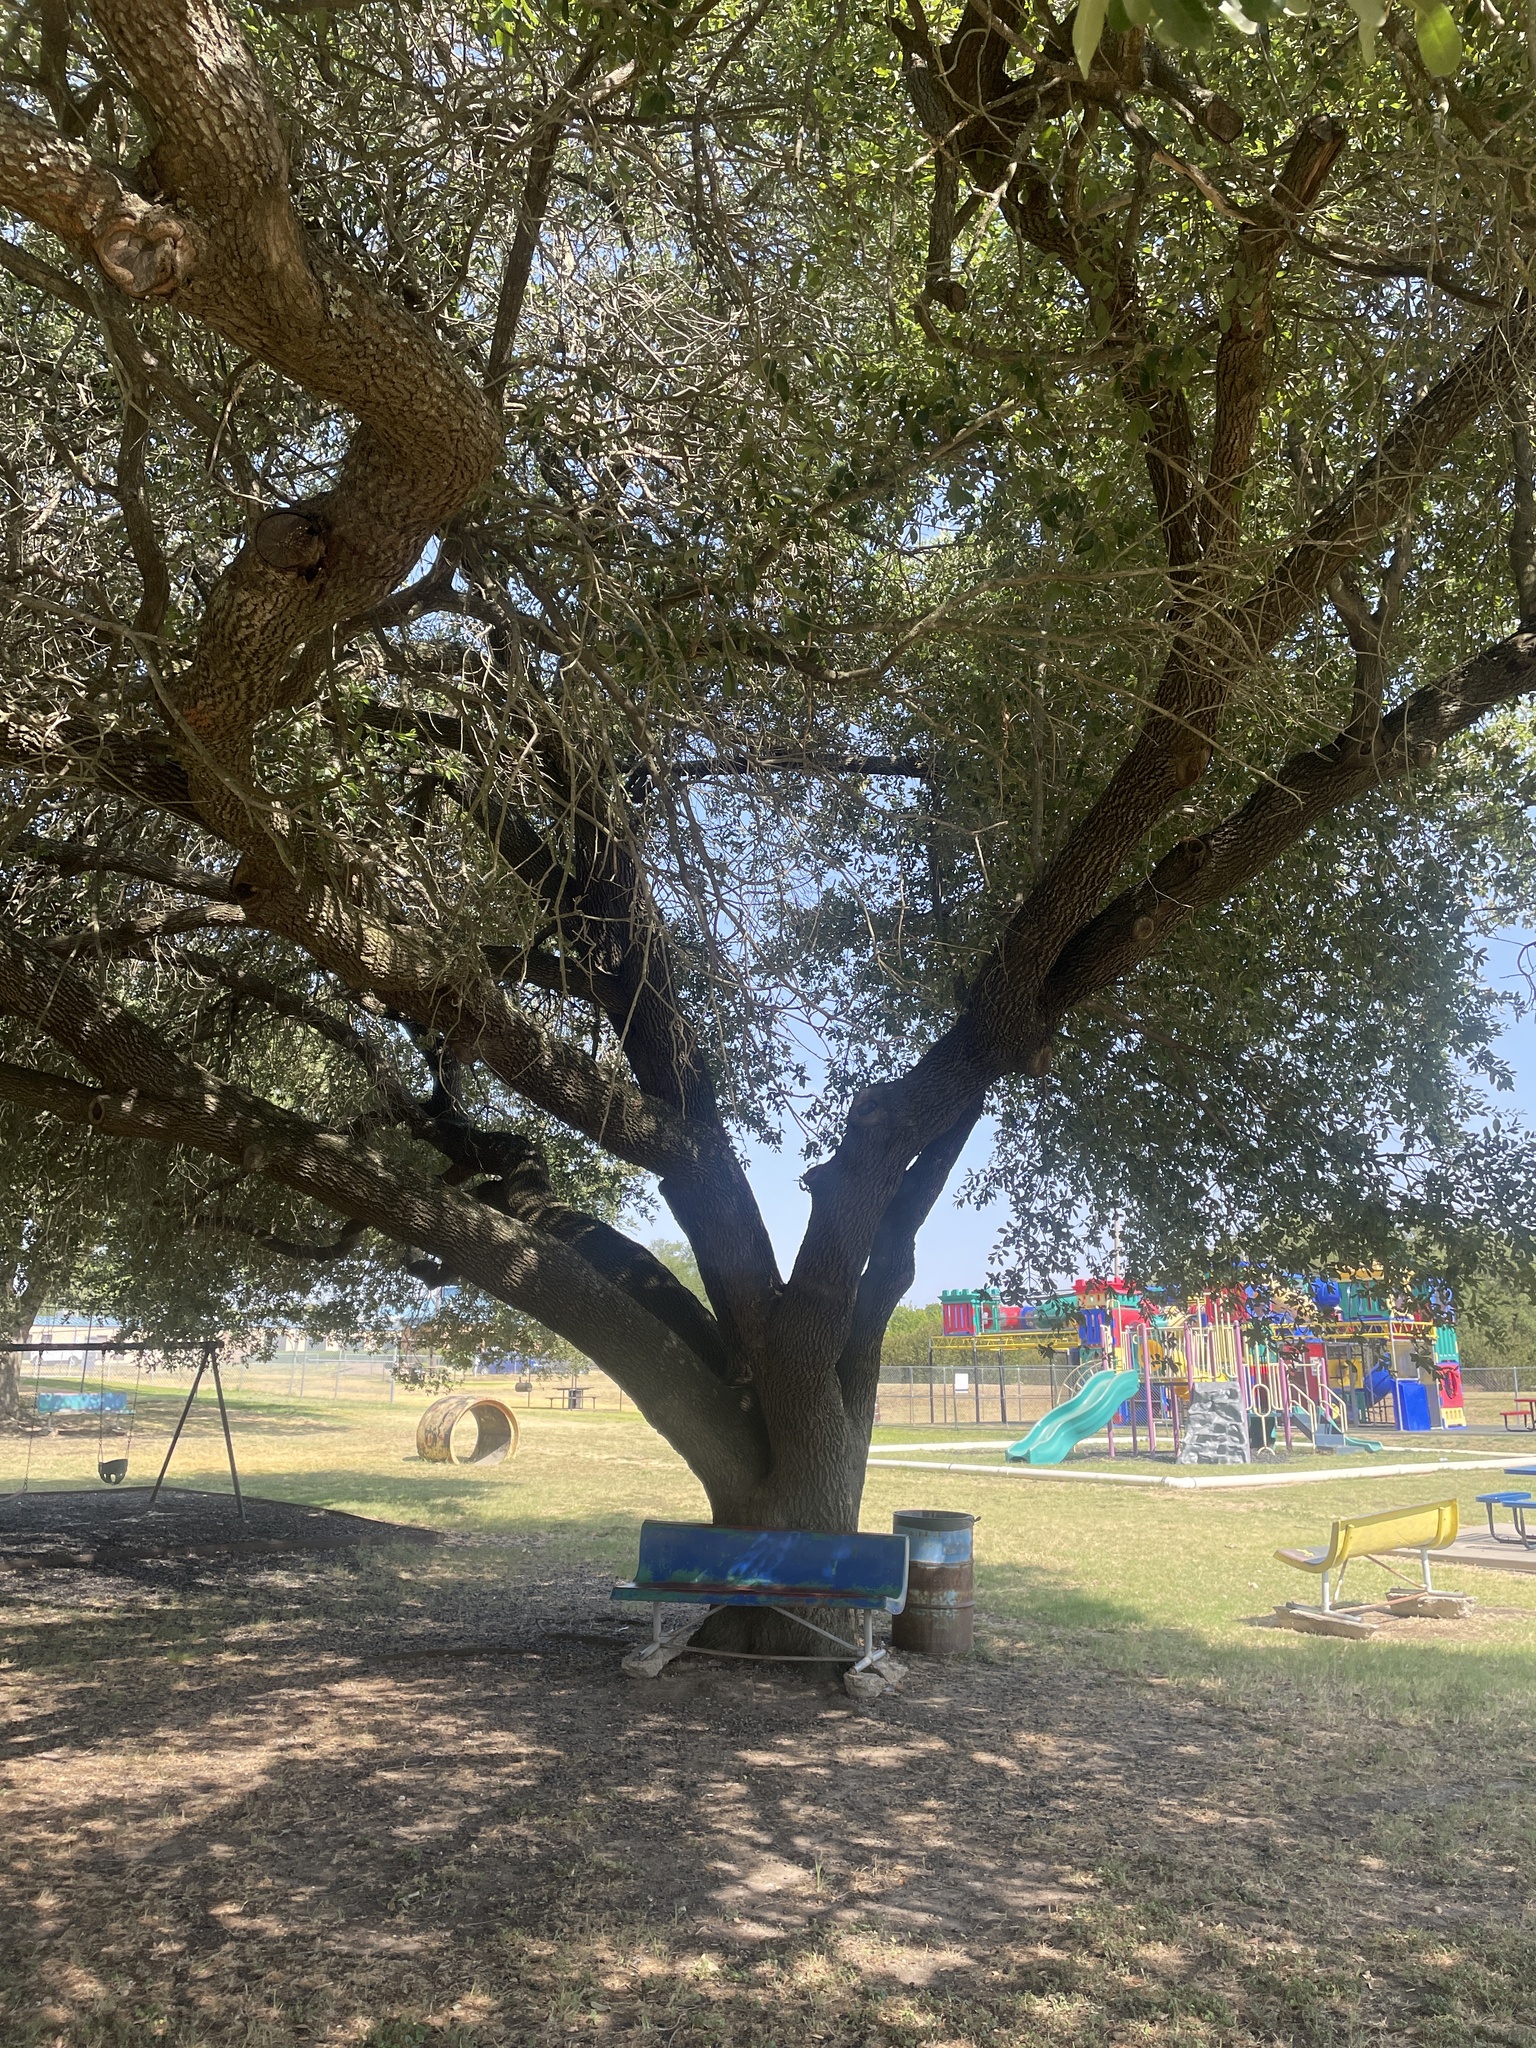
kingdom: Plantae
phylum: Tracheophyta
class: Magnoliopsida
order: Fagales
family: Fagaceae
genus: Quercus
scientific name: Quercus virginiana
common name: Southern live oak
